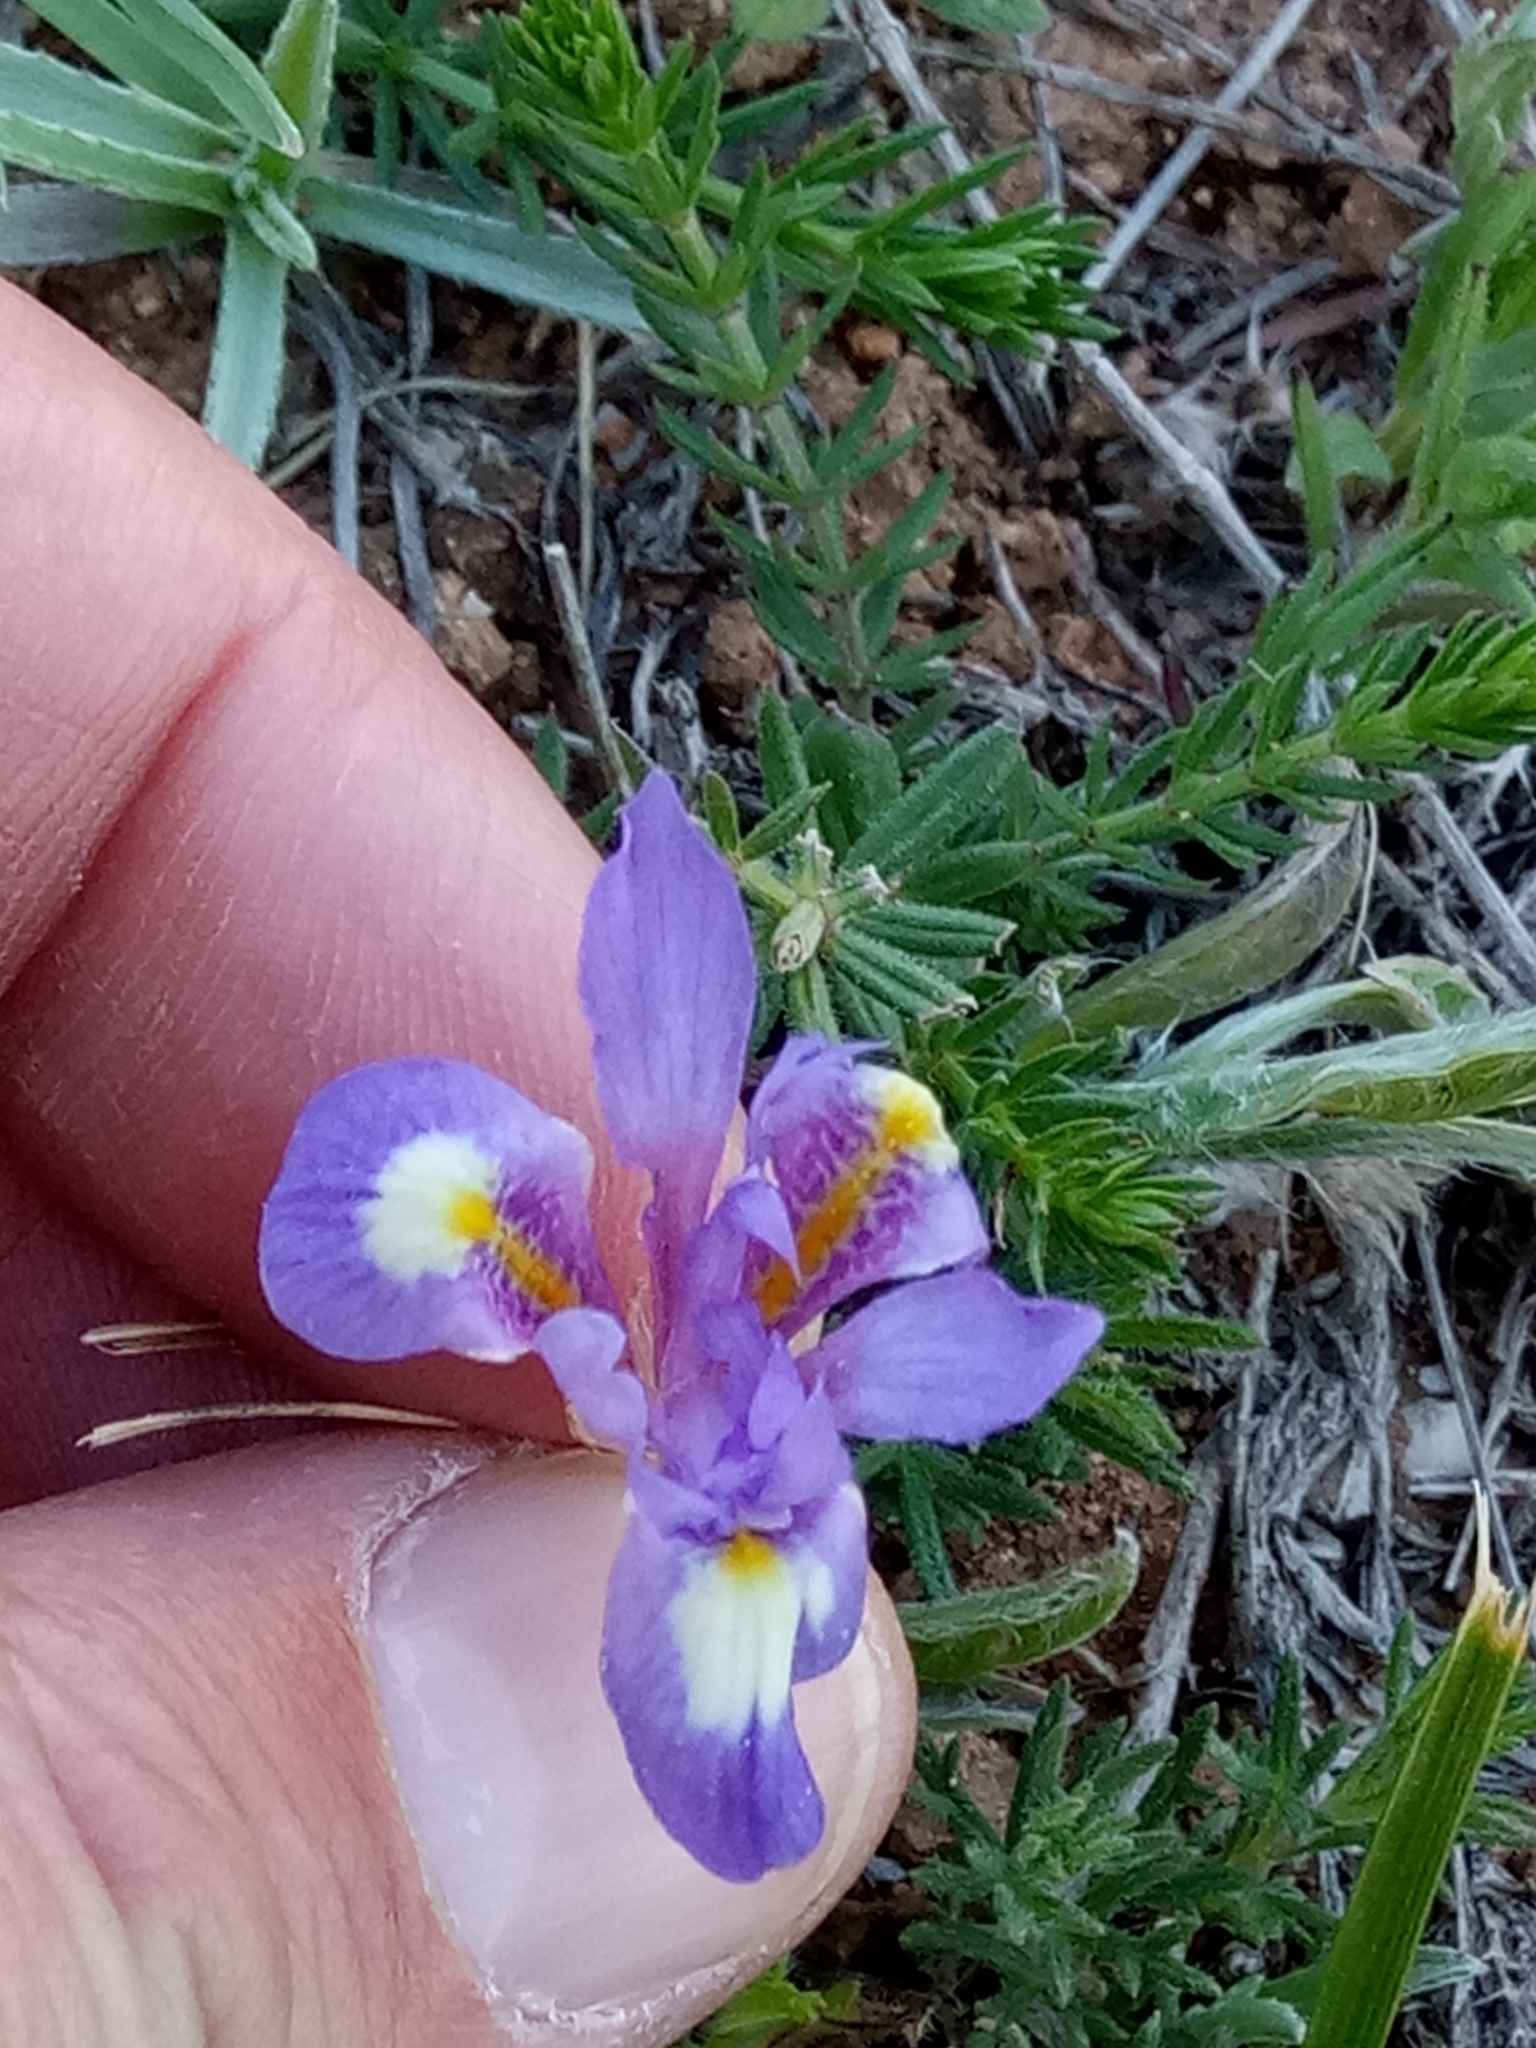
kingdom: Plantae
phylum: Tracheophyta
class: Liliopsida
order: Asparagales
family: Iridaceae
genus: Moraea
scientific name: Moraea sisyrinchium
